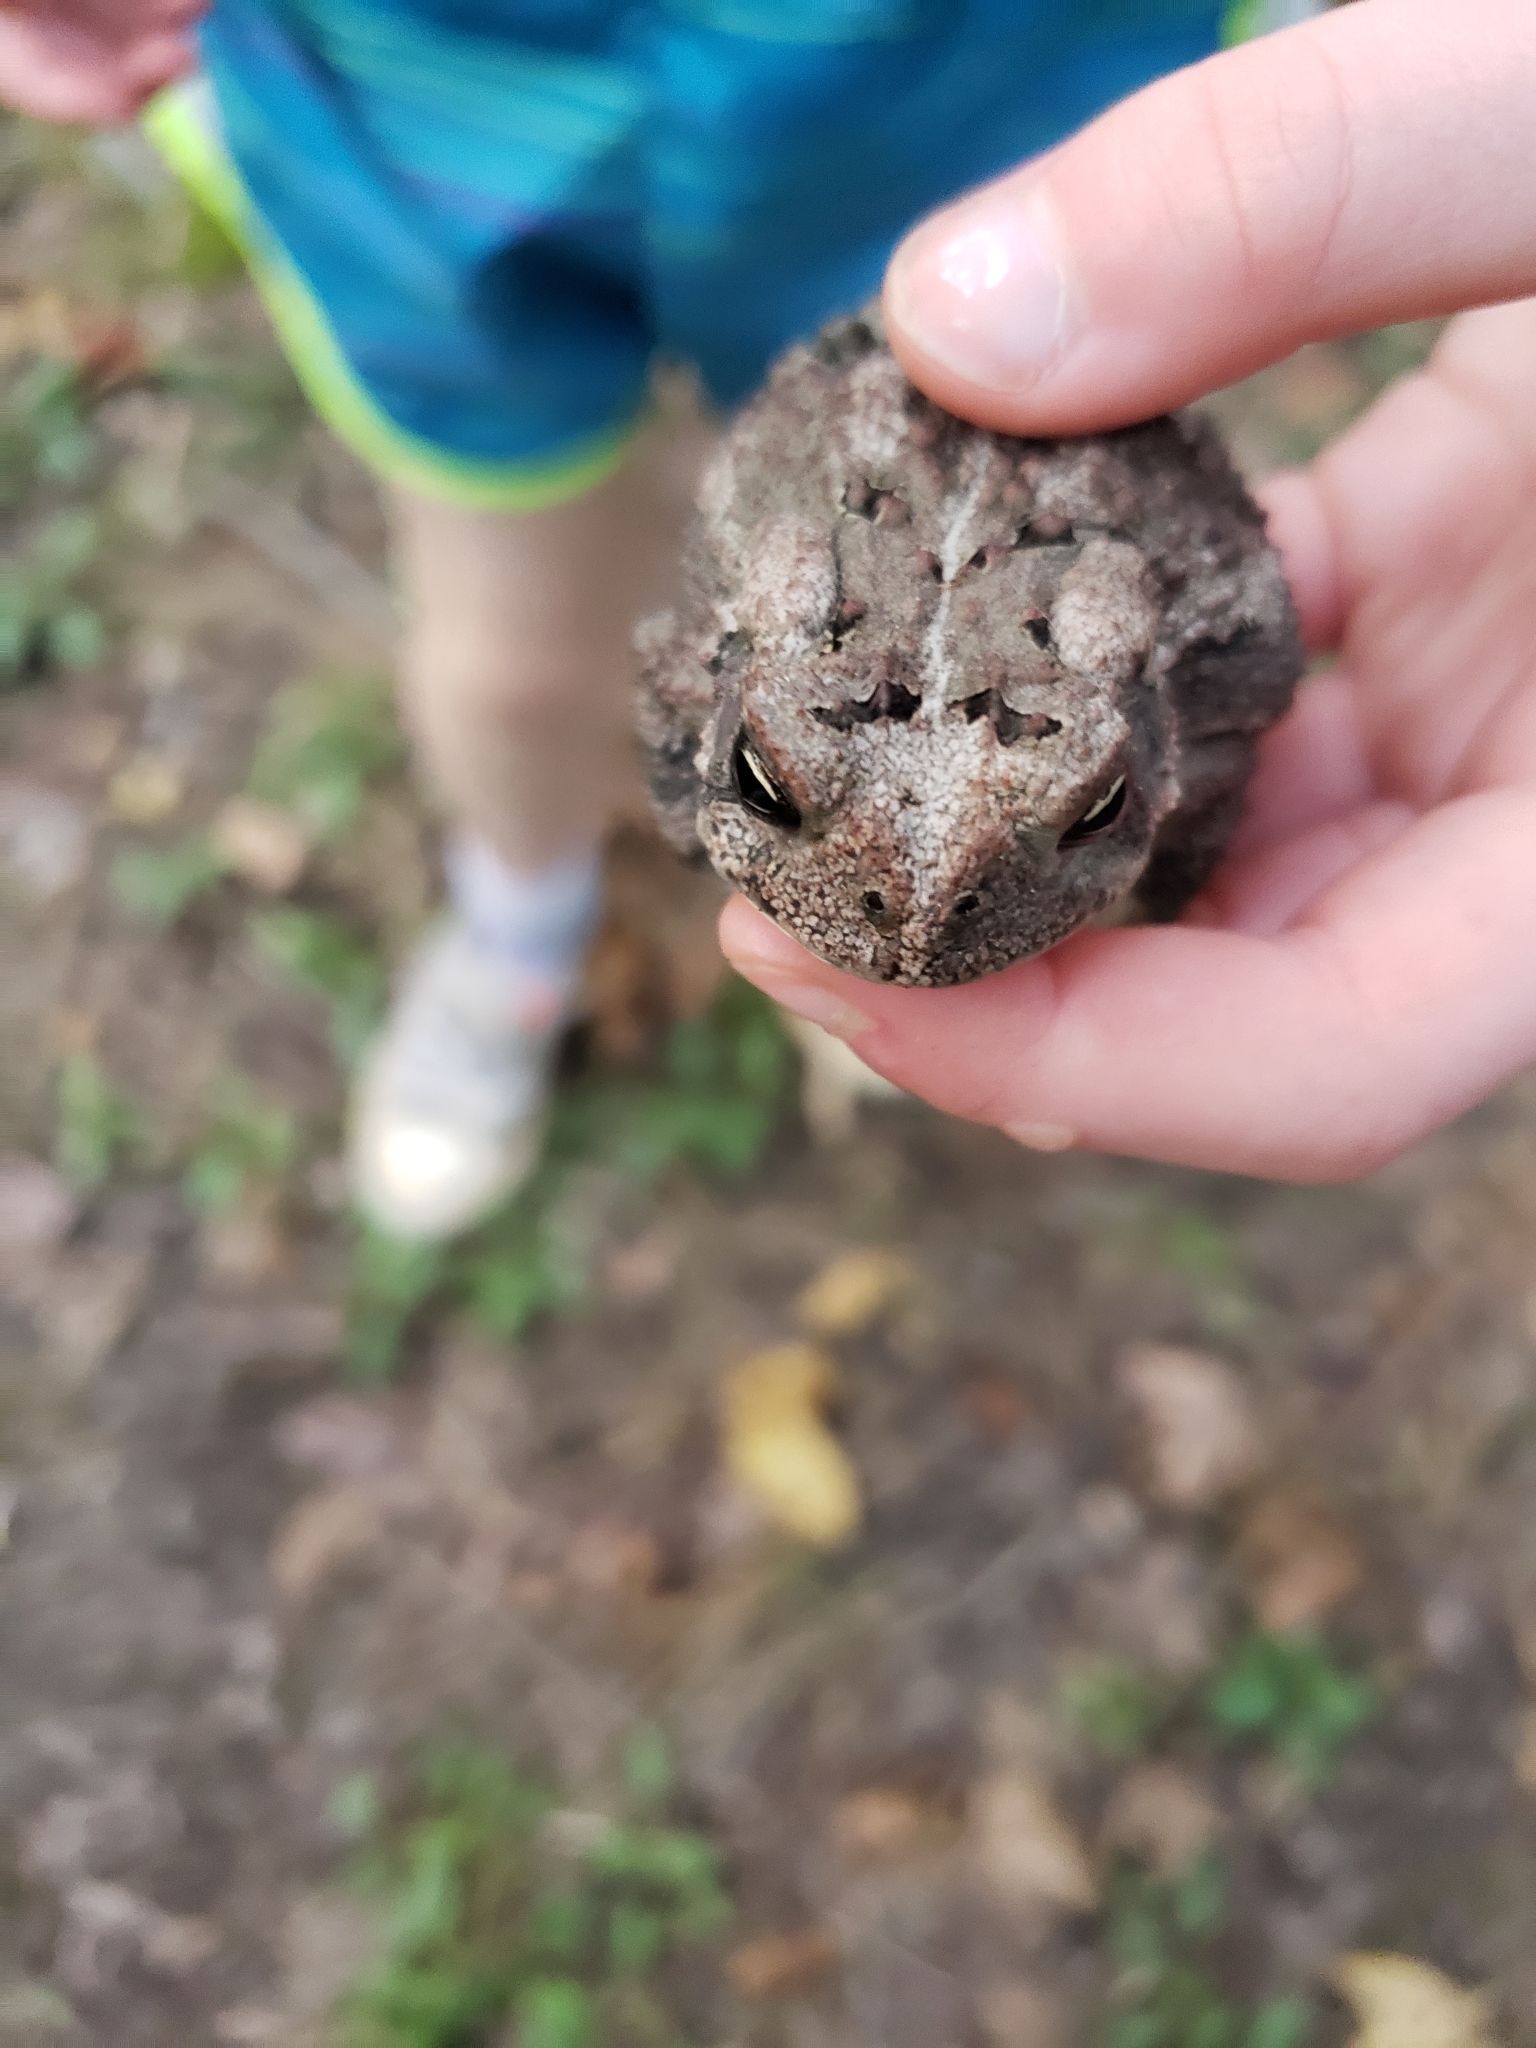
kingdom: Animalia
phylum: Chordata
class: Amphibia
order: Anura
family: Bufonidae
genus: Anaxyrus
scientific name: Anaxyrus fowleri
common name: Fowler's toad
